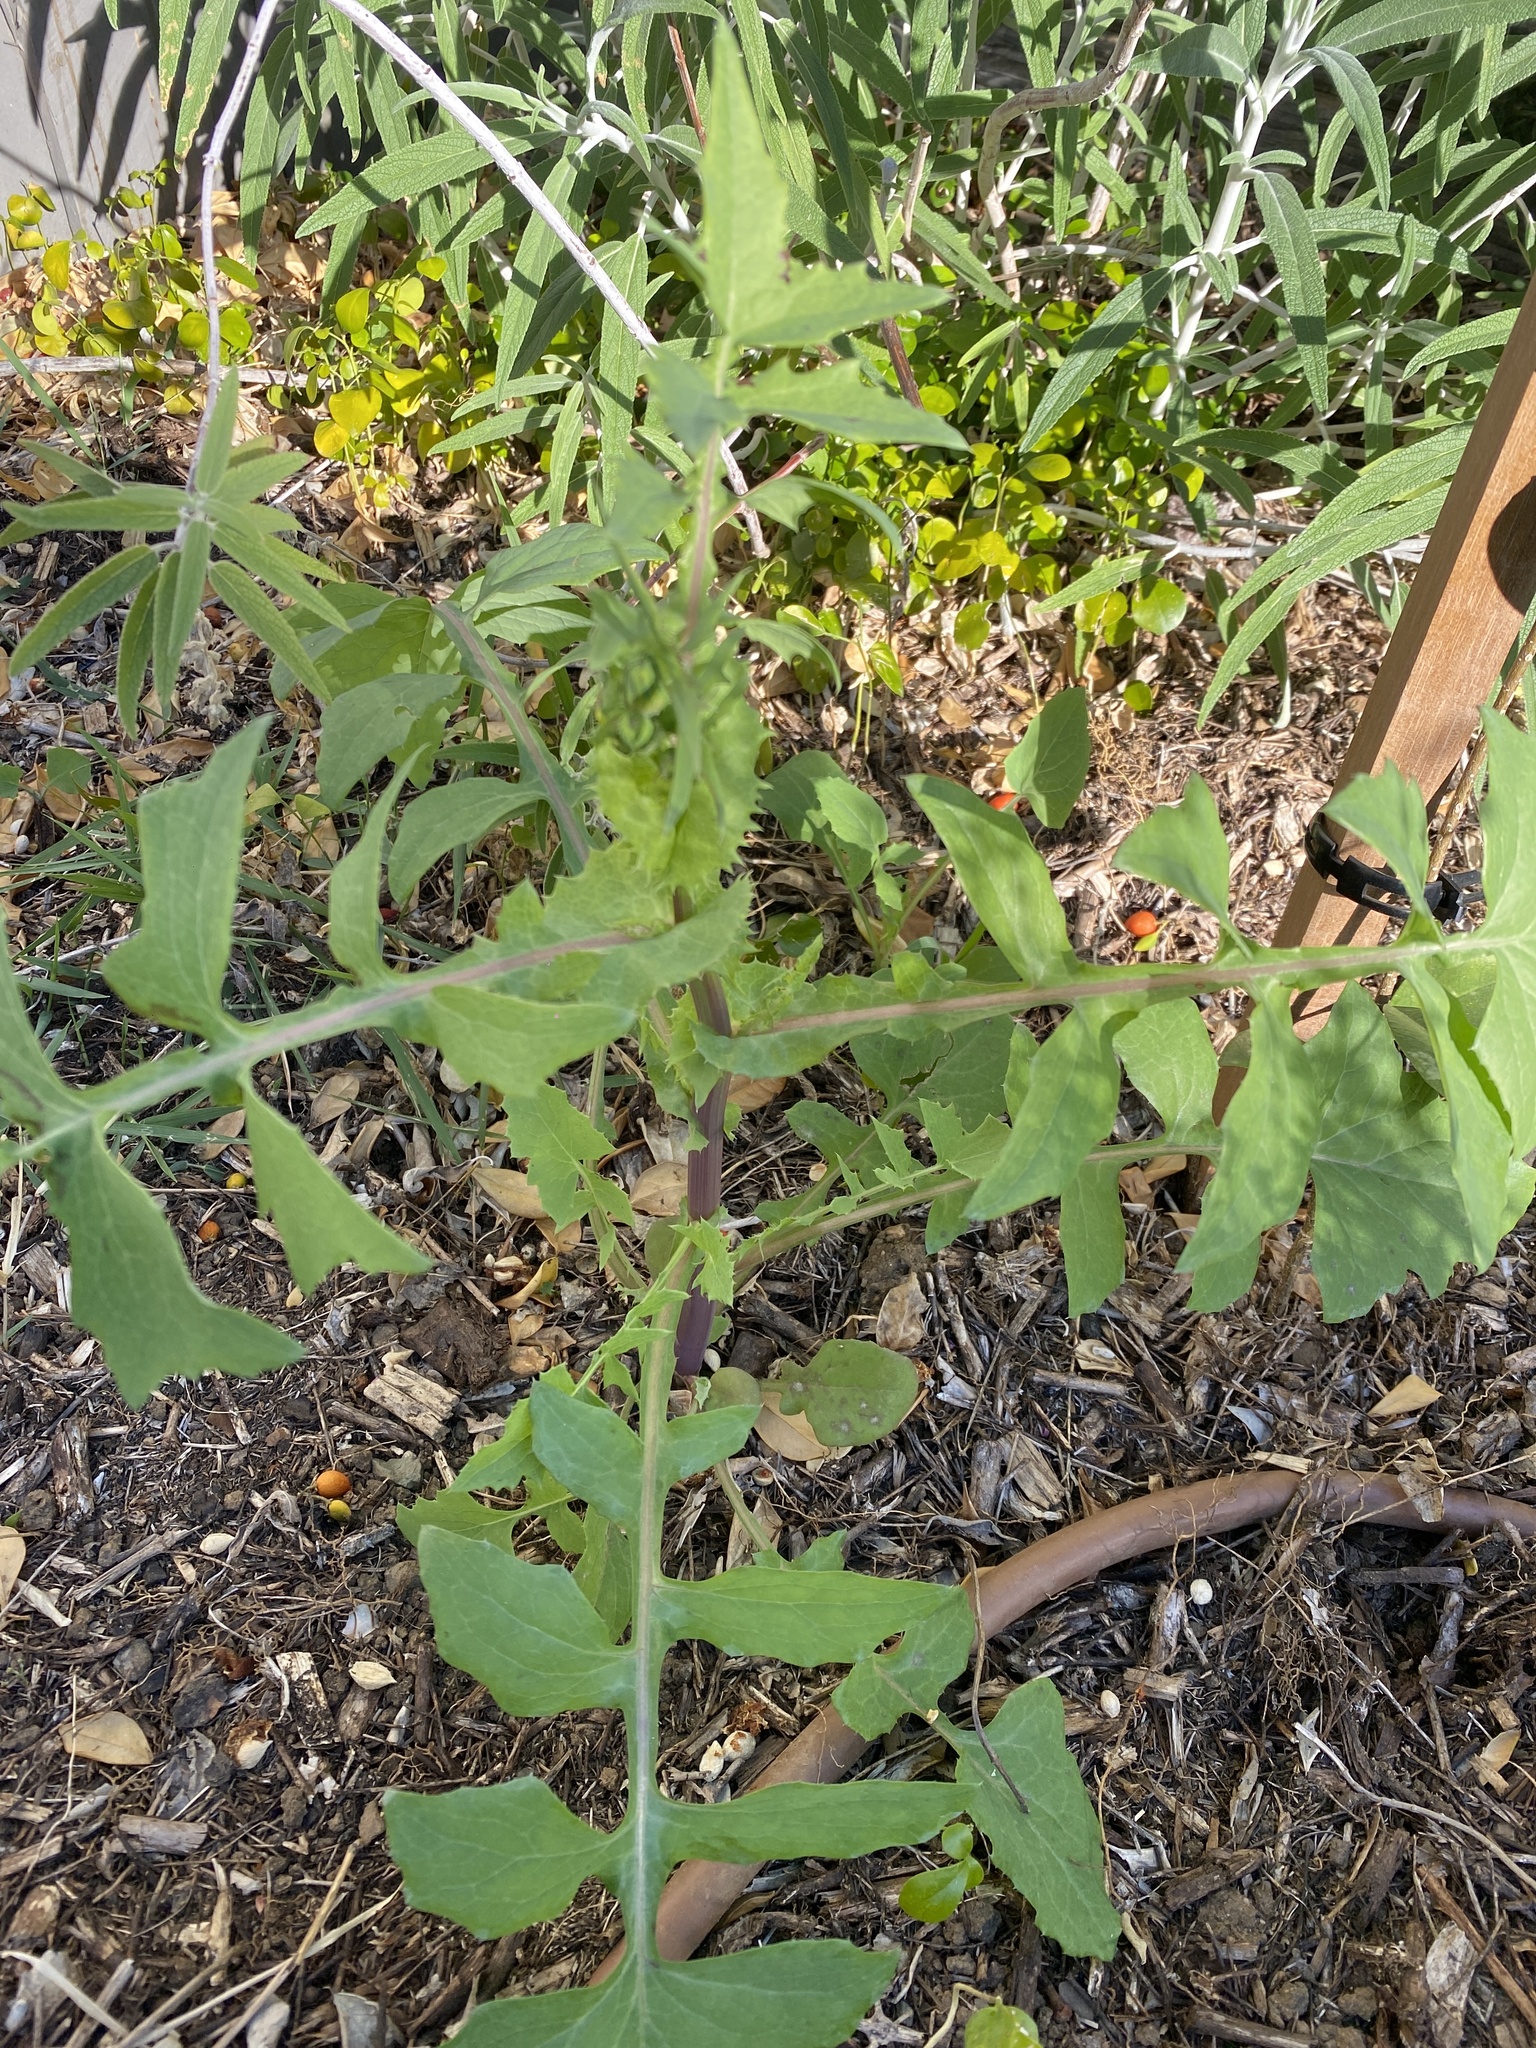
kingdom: Plantae
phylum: Tracheophyta
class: Magnoliopsida
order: Asterales
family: Asteraceae
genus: Sonchus
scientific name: Sonchus oleraceus
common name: Common sowthistle
